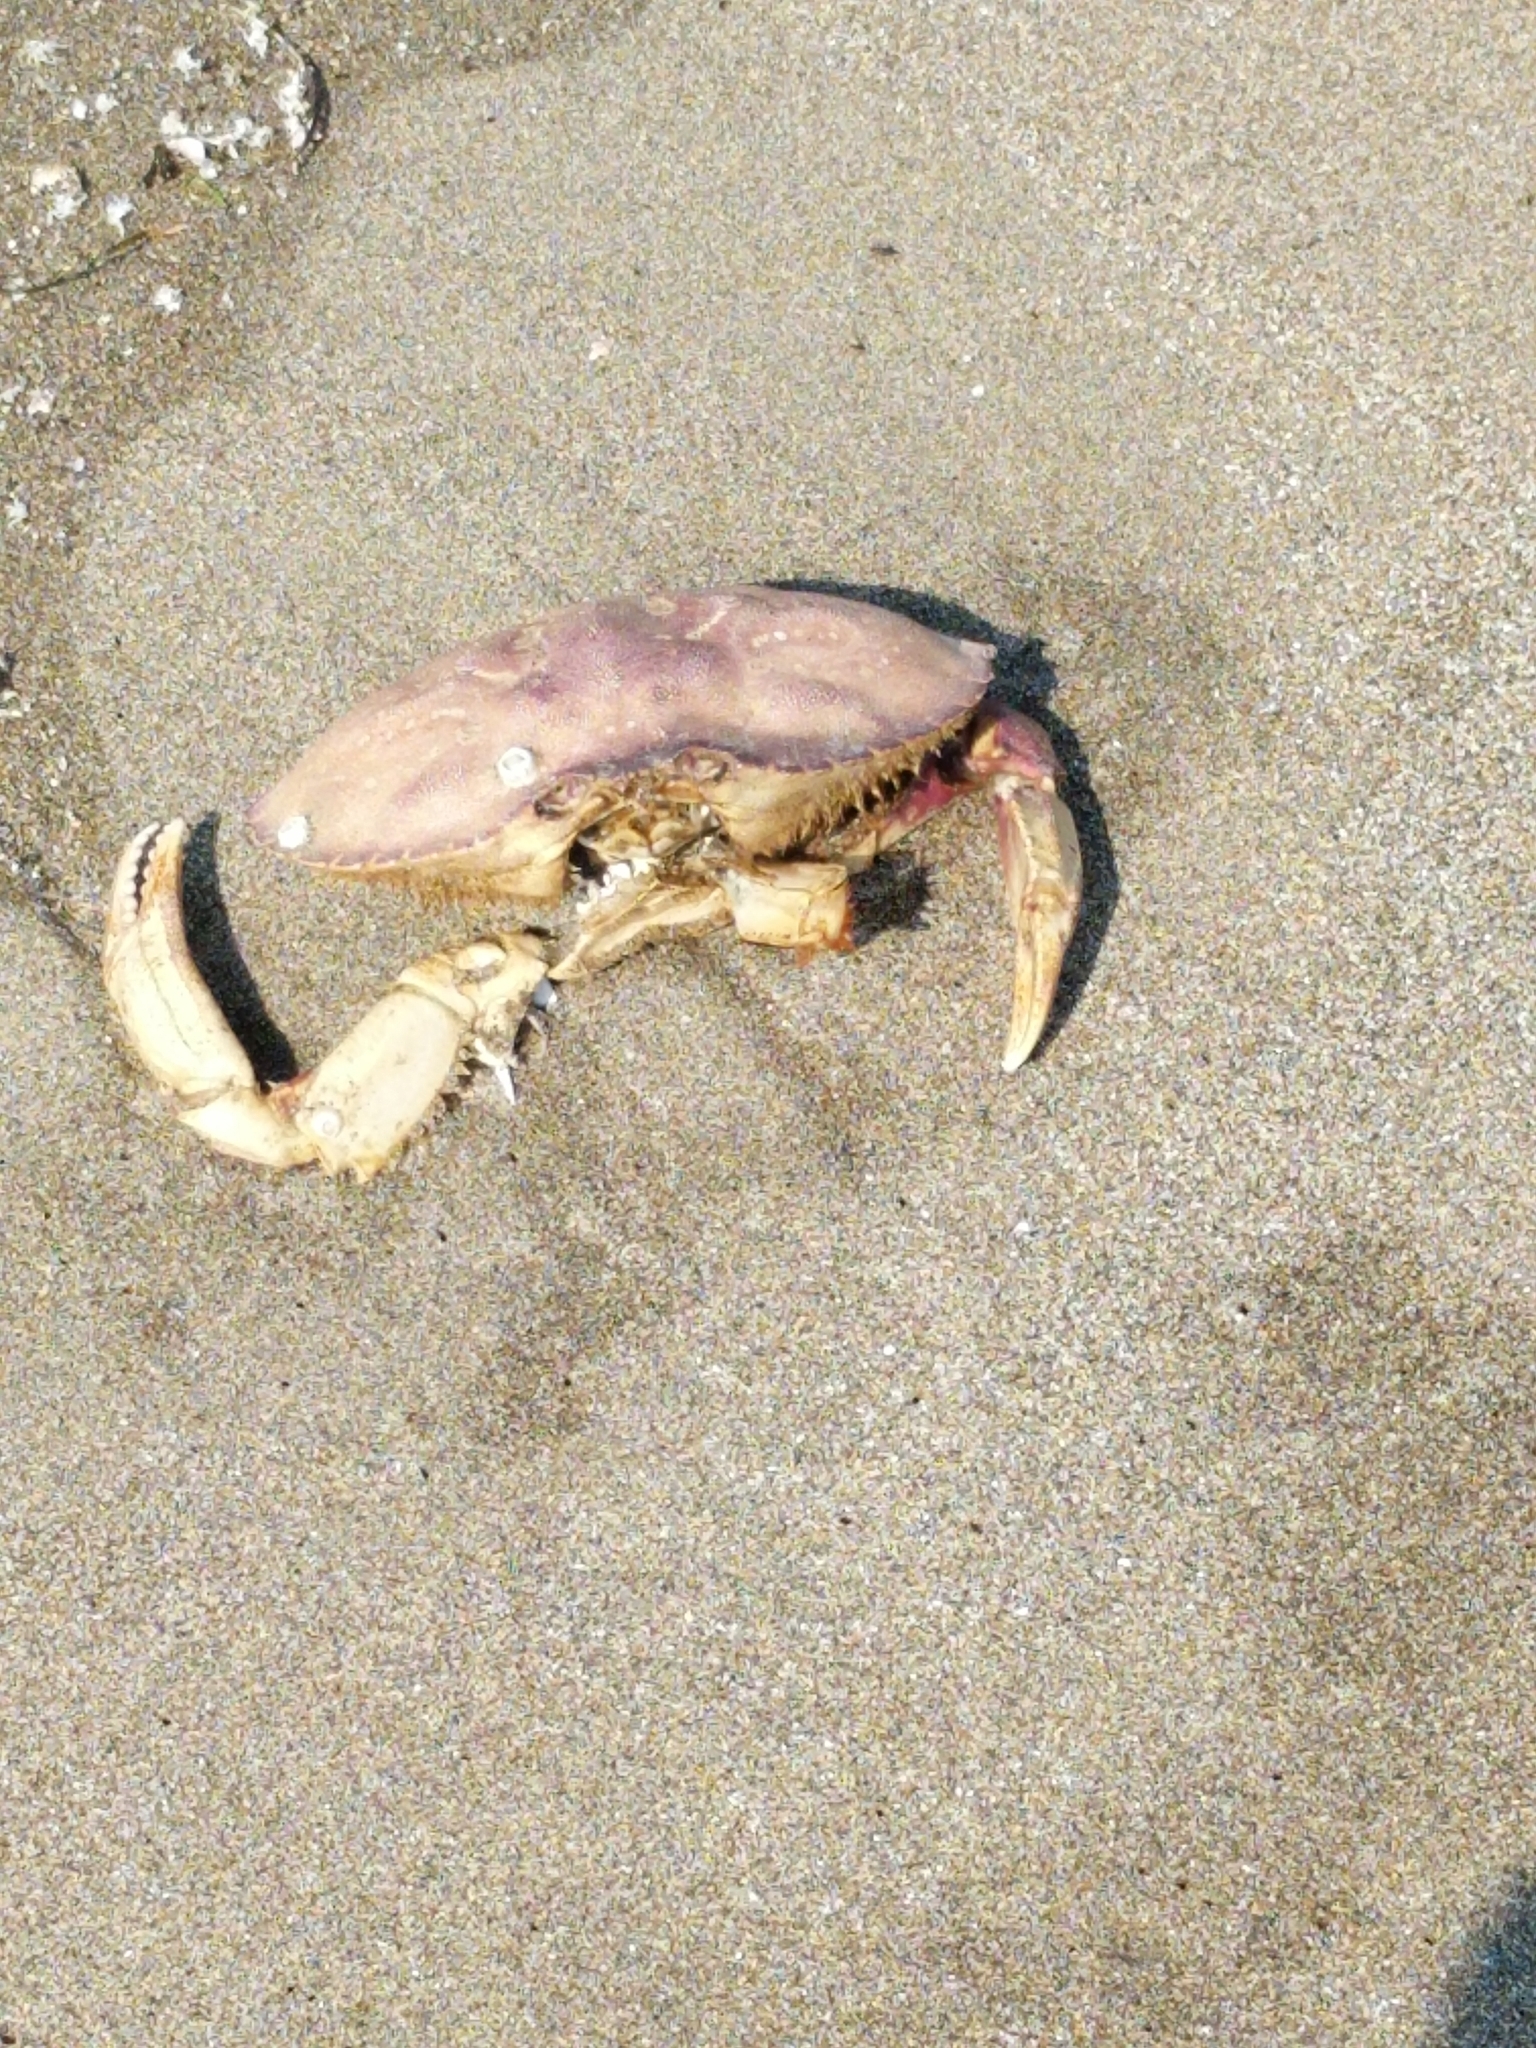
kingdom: Animalia
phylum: Arthropoda
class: Malacostraca
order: Decapoda
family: Cancridae
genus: Metacarcinus
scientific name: Metacarcinus magister
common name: Californian crab
